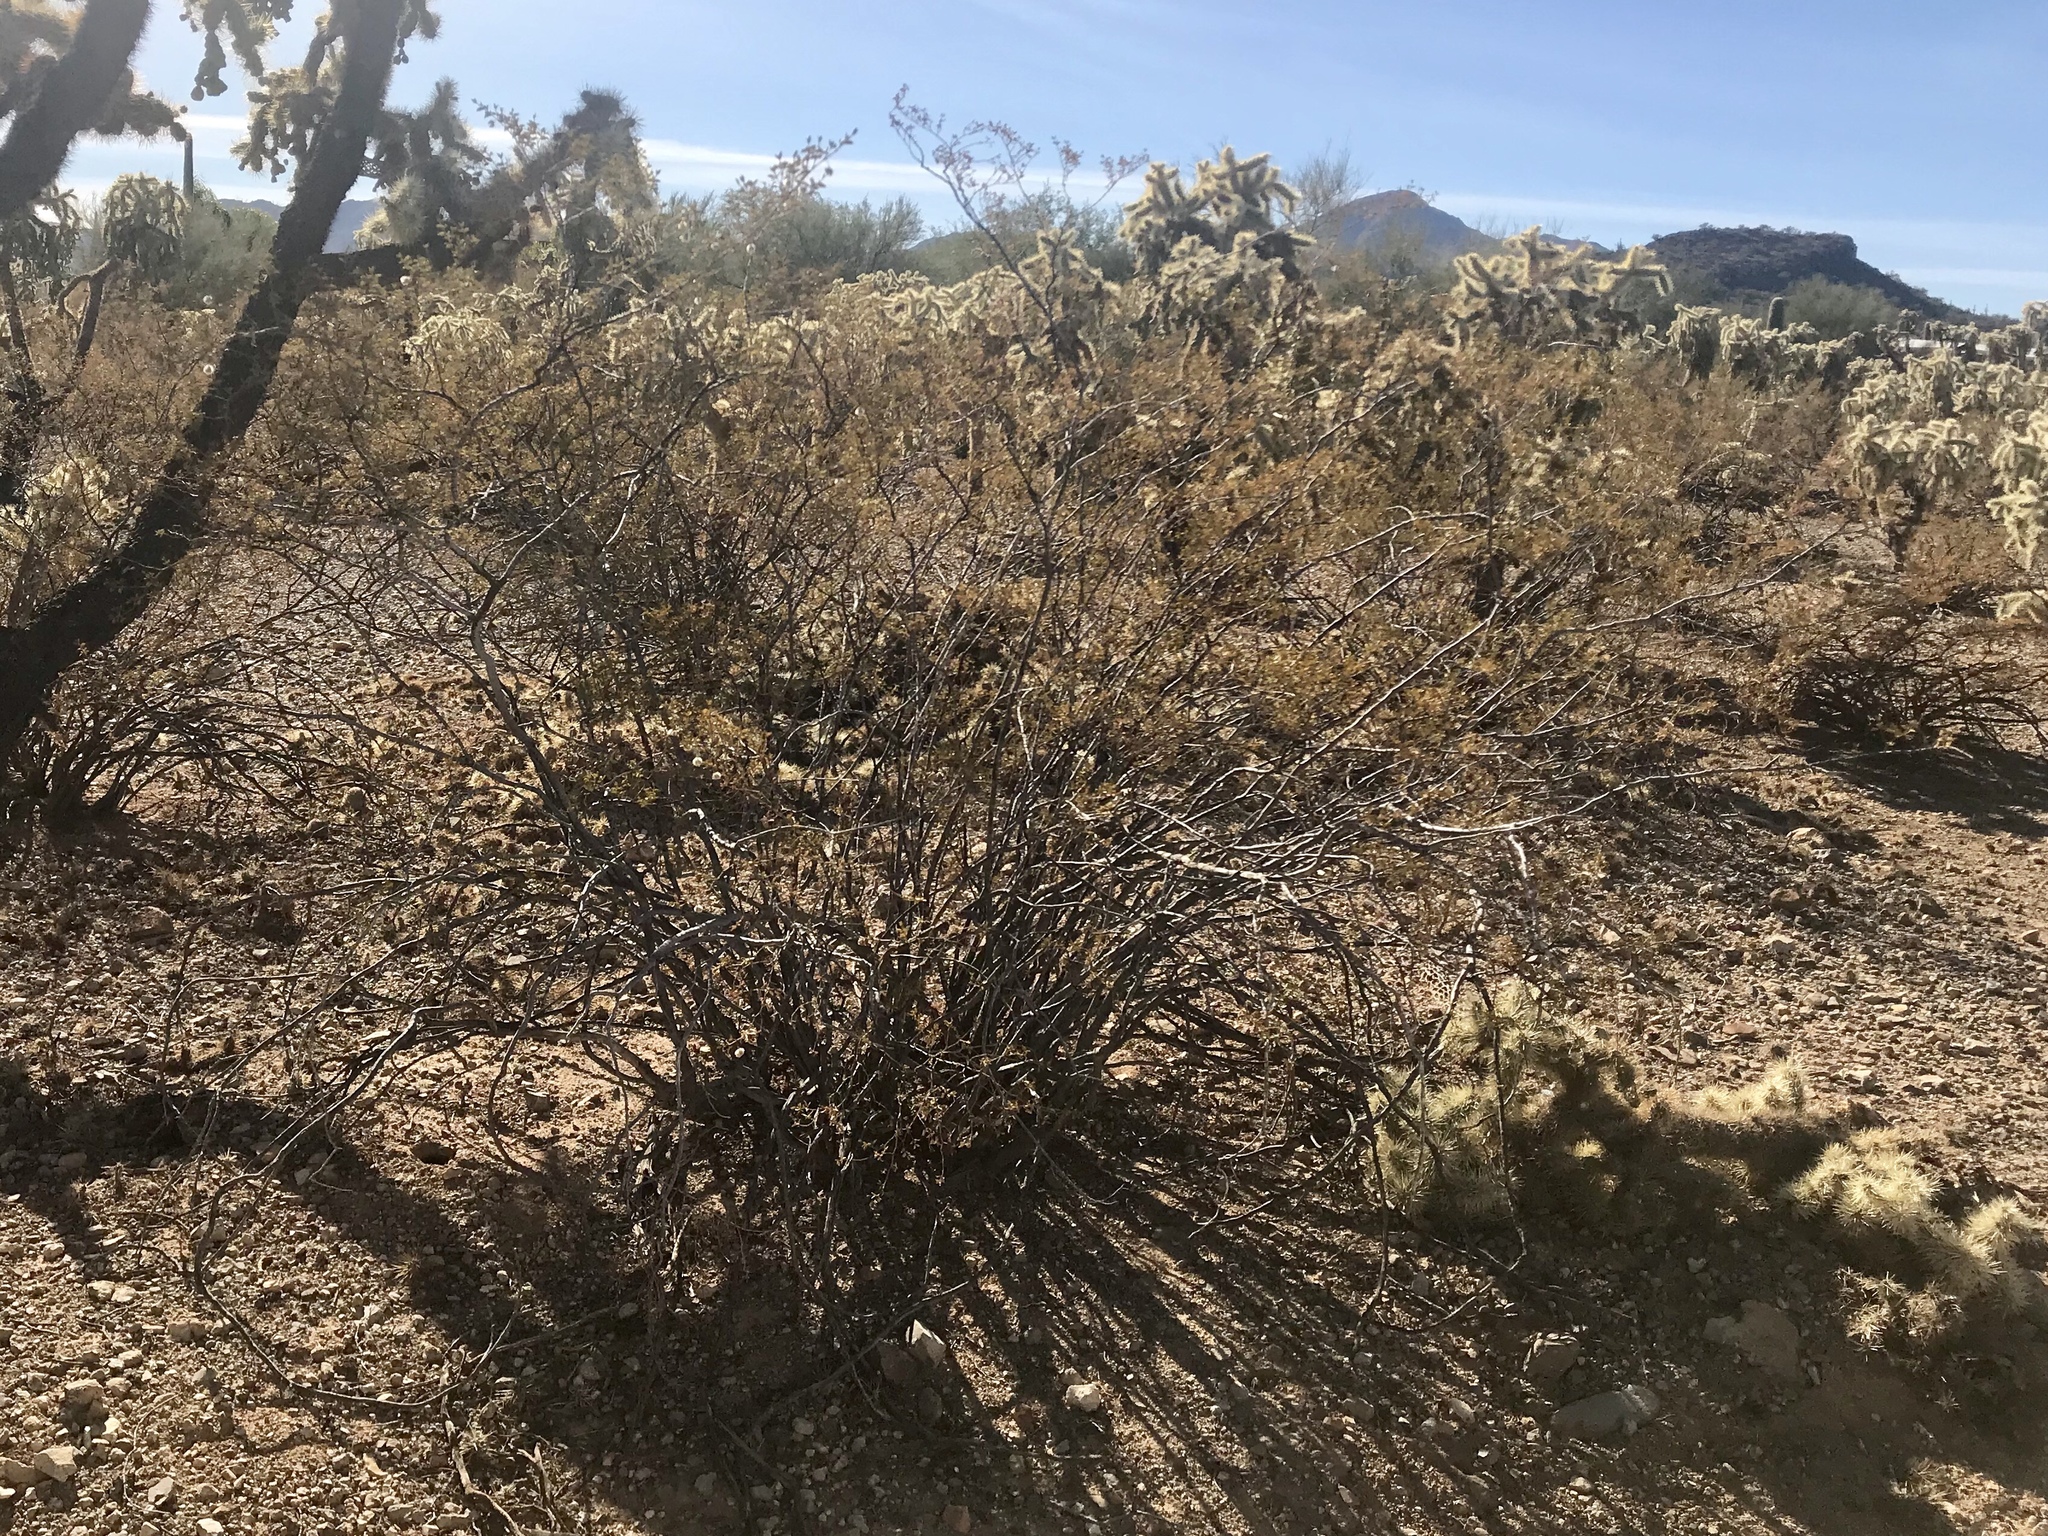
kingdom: Plantae
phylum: Tracheophyta
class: Magnoliopsida
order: Zygophyllales
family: Zygophyllaceae
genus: Larrea
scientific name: Larrea tridentata
